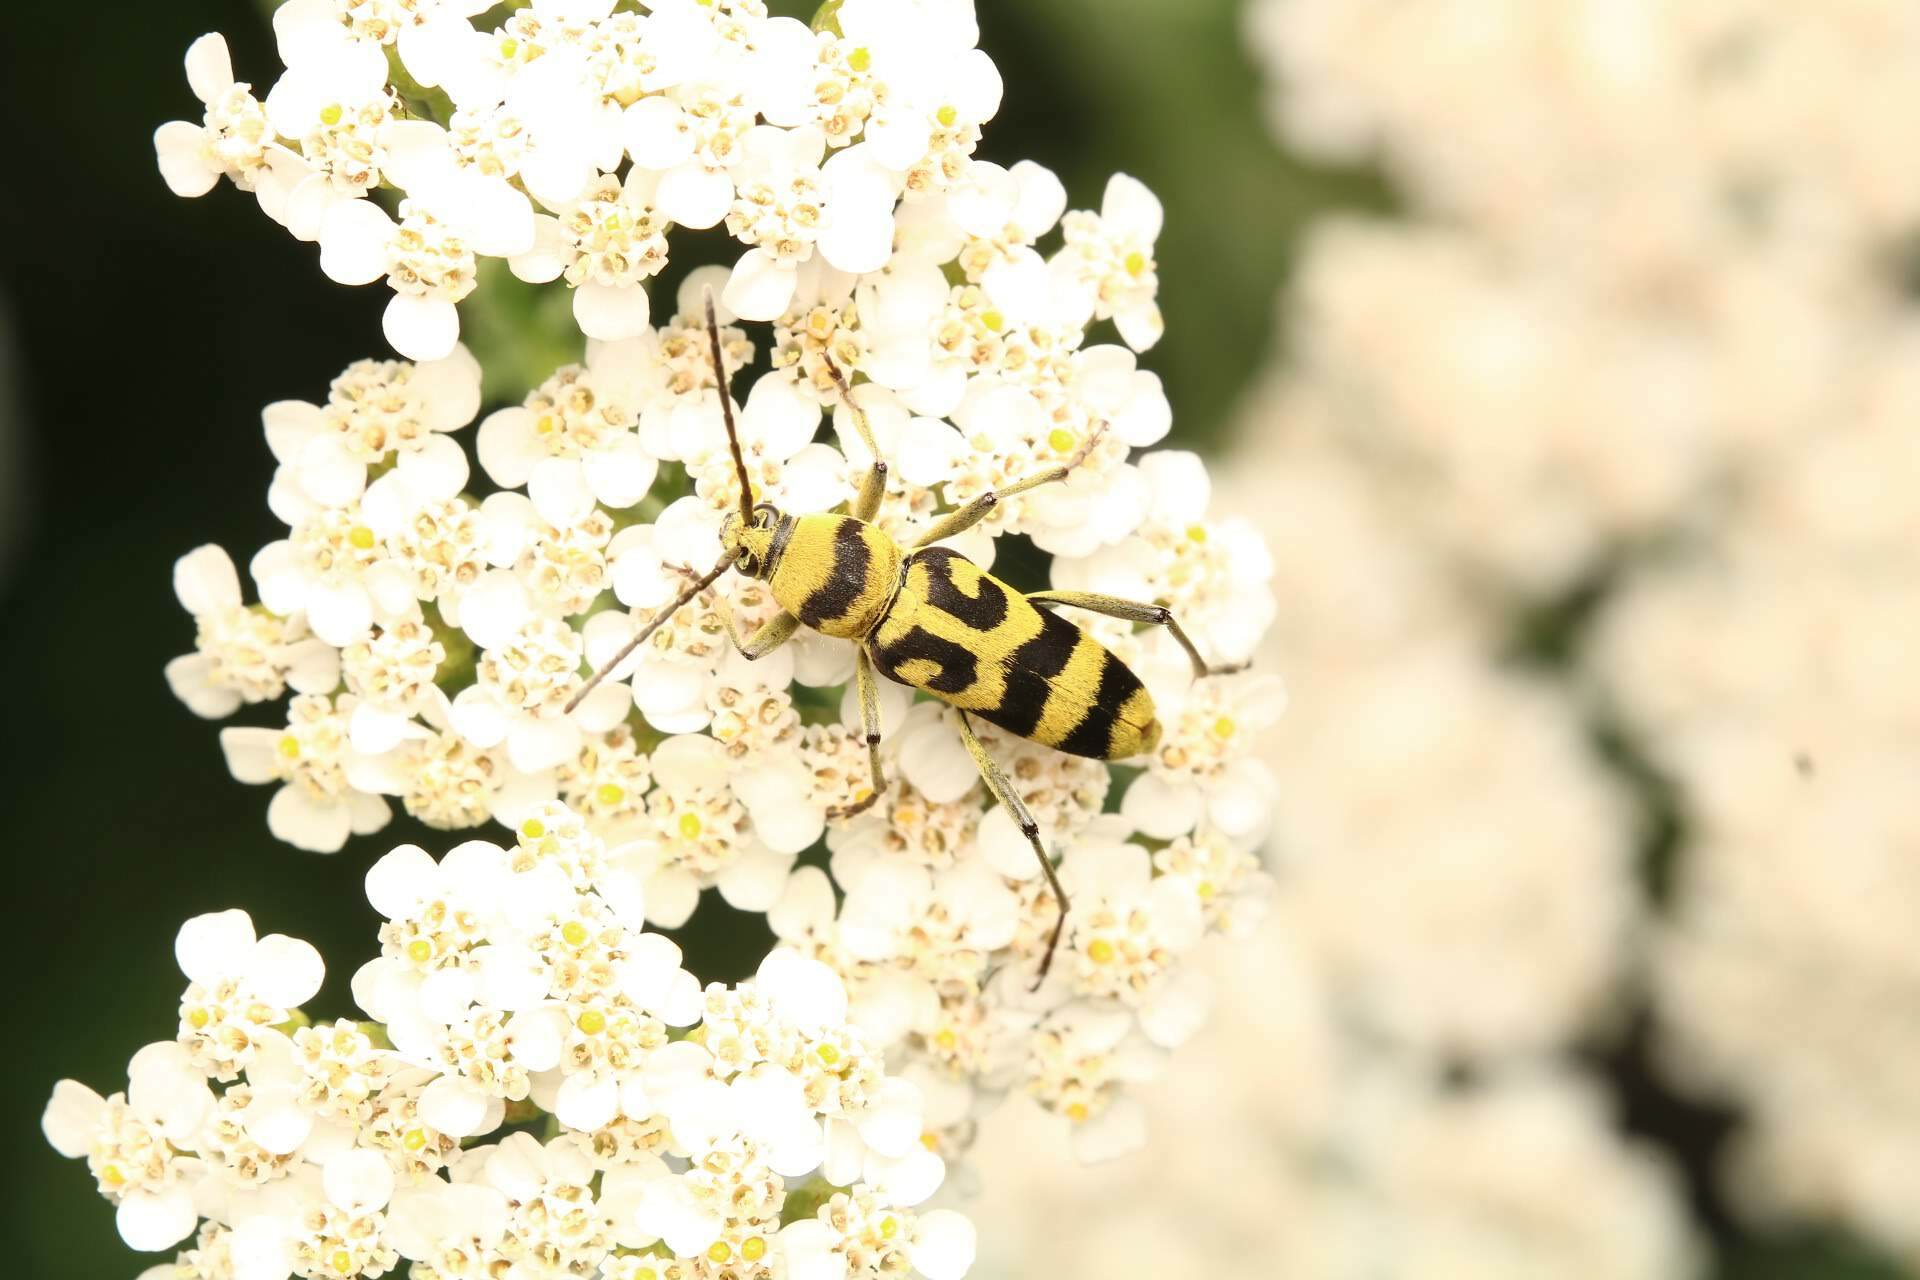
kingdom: Animalia
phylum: Arthropoda
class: Insecta
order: Coleoptera
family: Cerambycidae
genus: Chlorophorus
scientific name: Chlorophorus varius
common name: Grape wood borer
